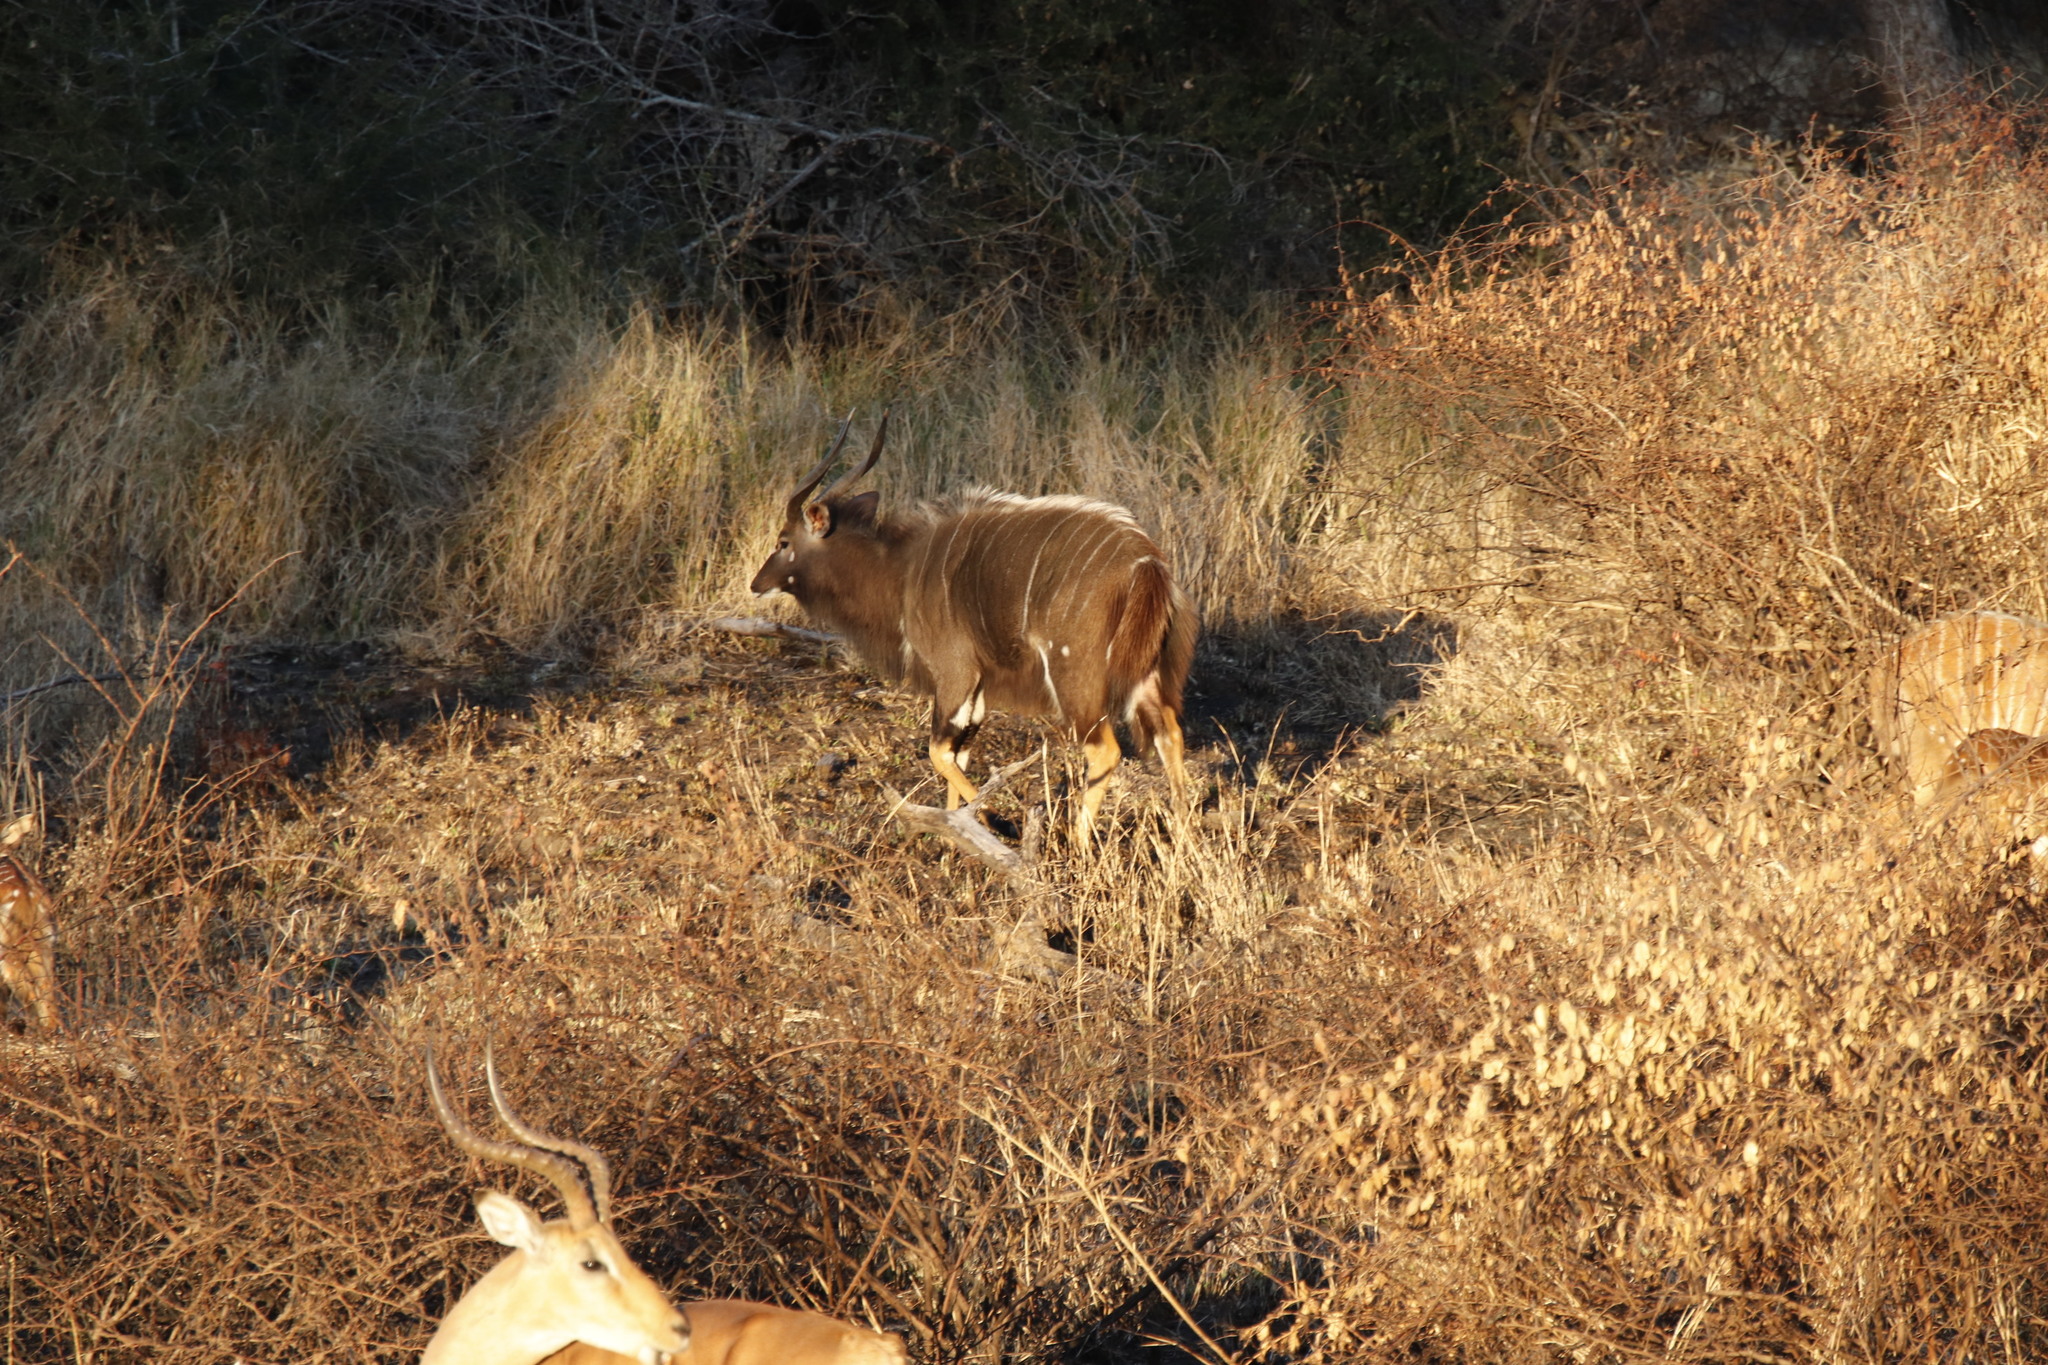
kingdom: Animalia
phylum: Chordata
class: Mammalia
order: Artiodactyla
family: Bovidae
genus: Tragelaphus
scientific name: Tragelaphus angasii
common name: Nyala
